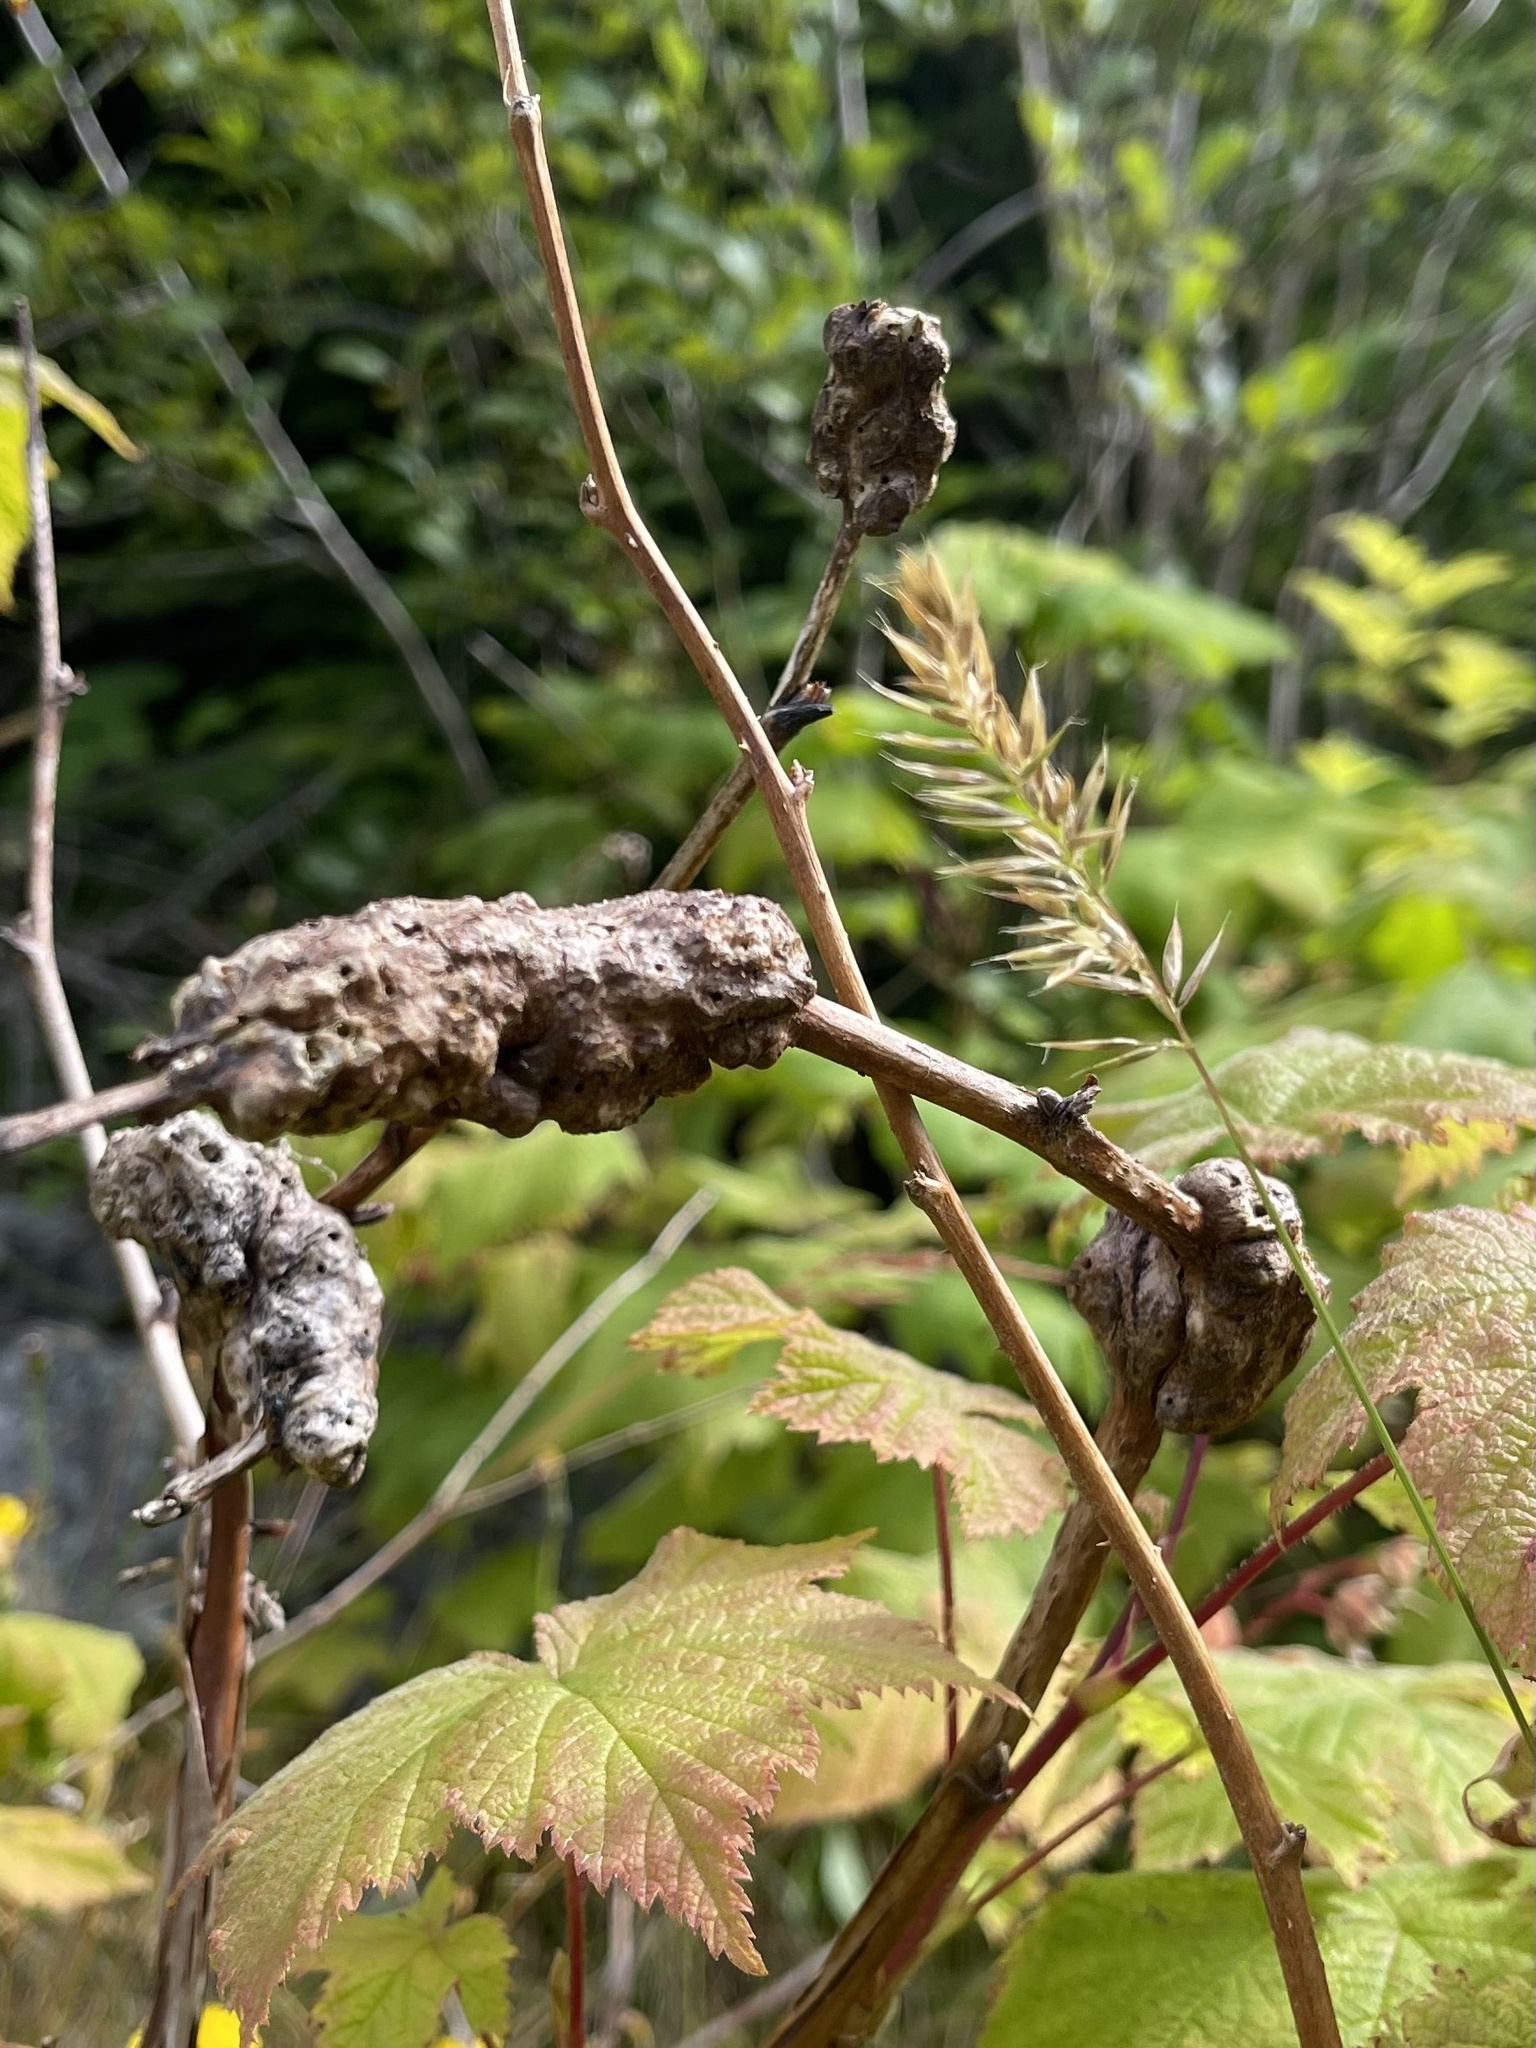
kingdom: Animalia
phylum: Arthropoda
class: Insecta
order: Hymenoptera
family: Cynipidae
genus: Diastrophus
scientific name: Diastrophus
